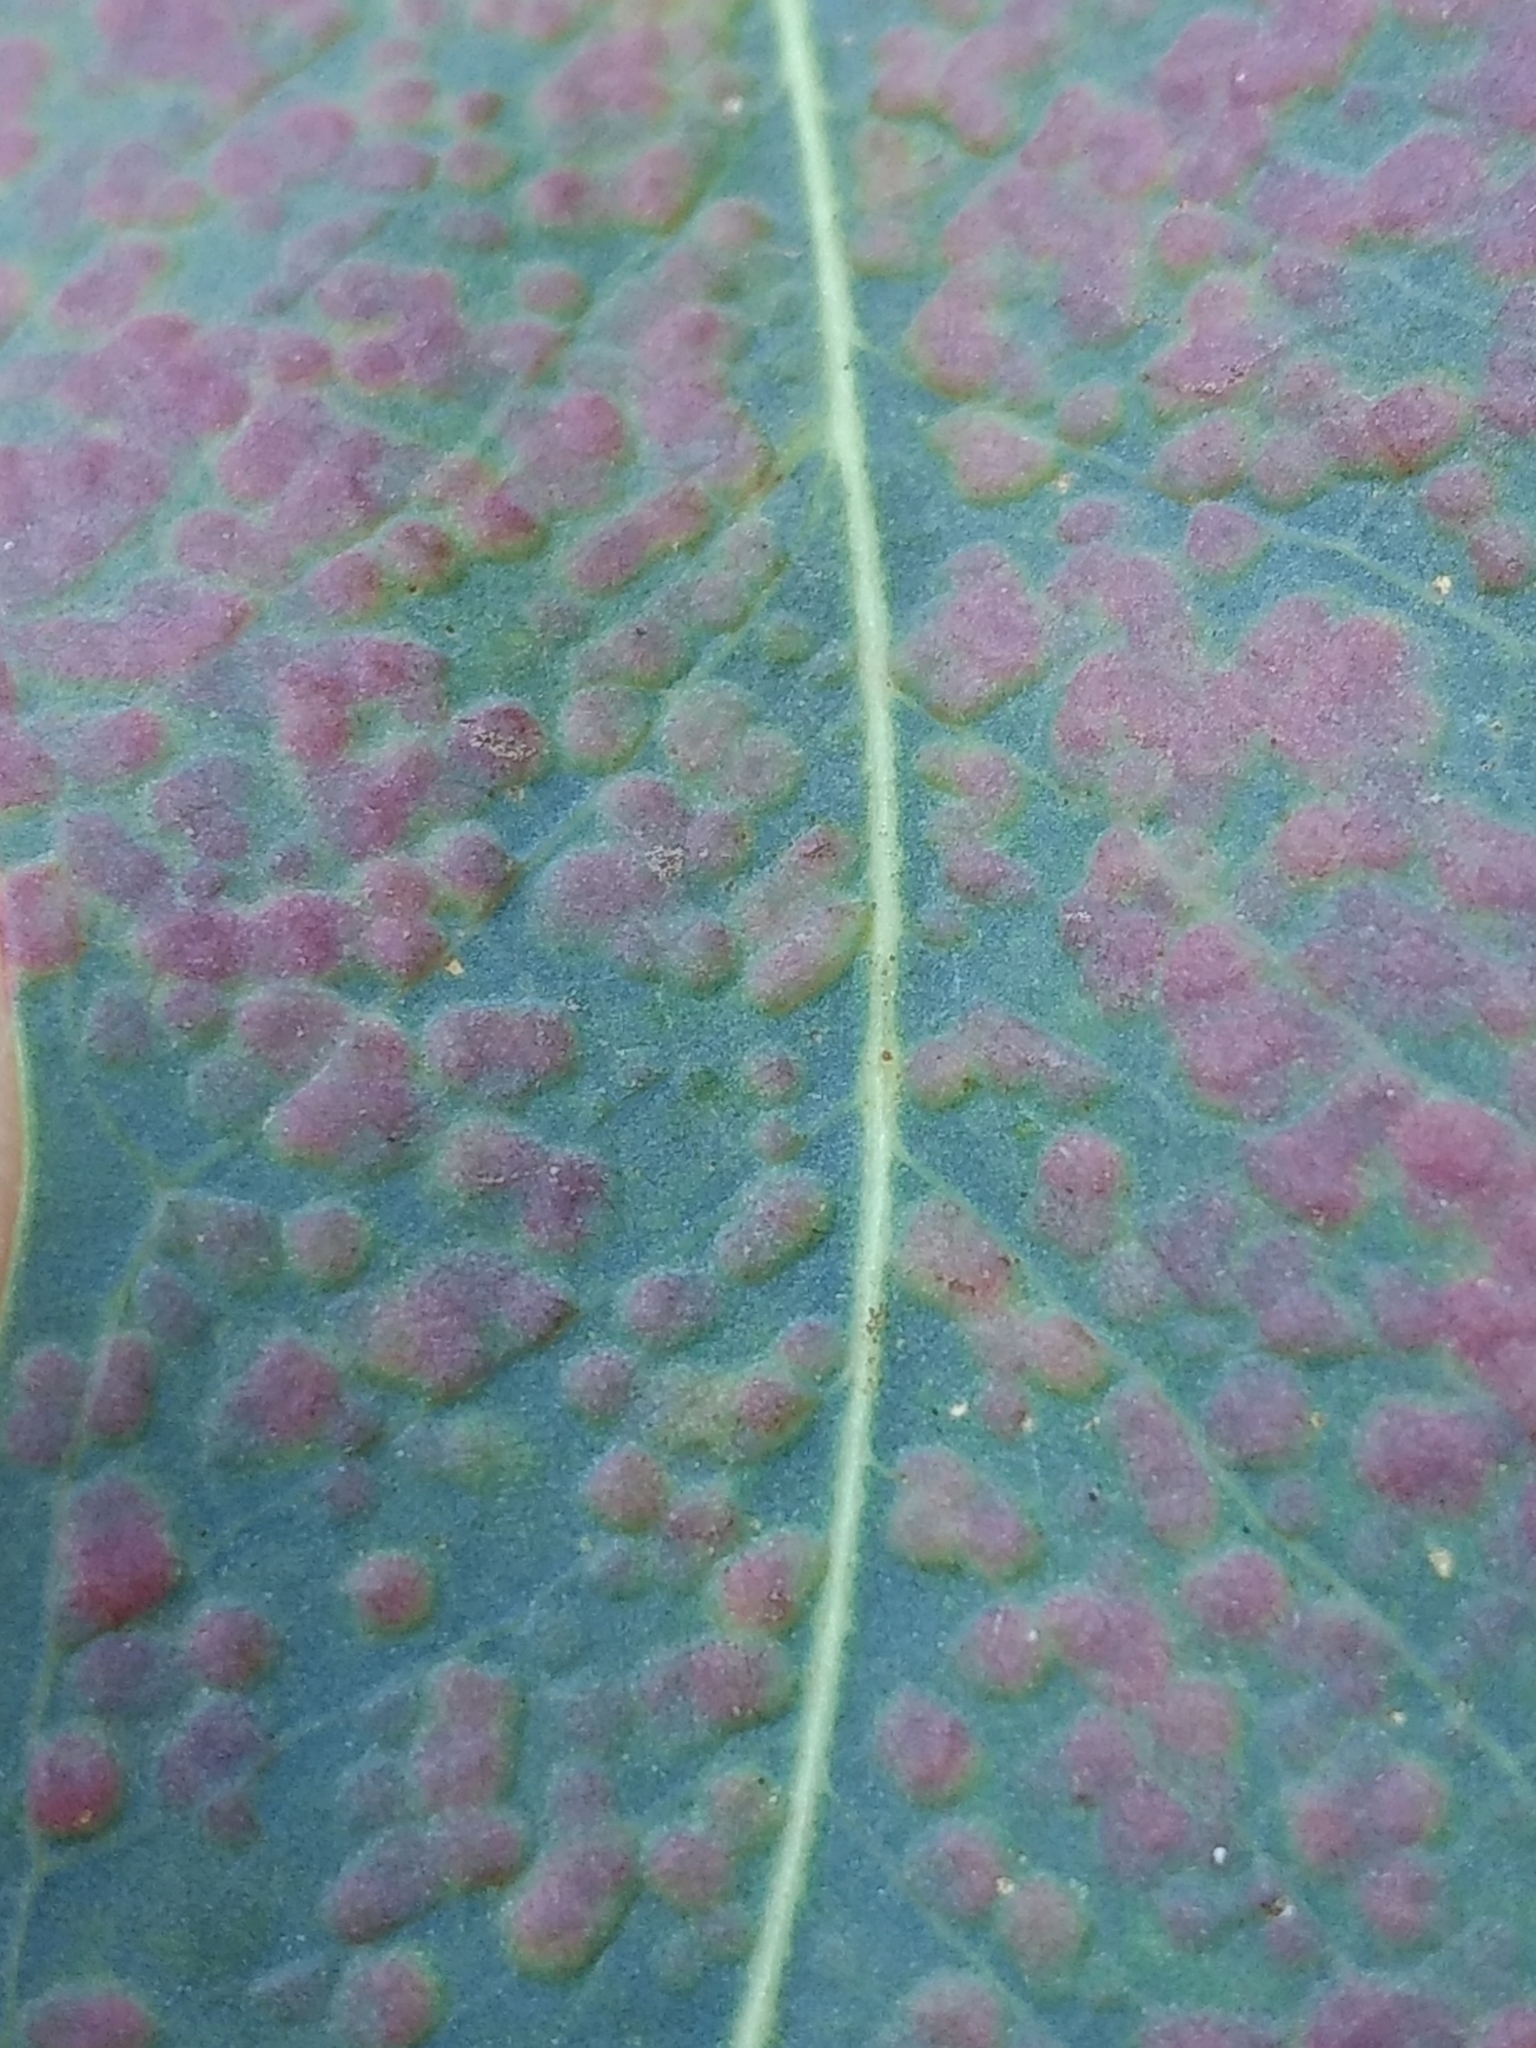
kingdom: Animalia
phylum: Arthropoda
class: Insecta
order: Hymenoptera
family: Eulophidae
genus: Ophelimus
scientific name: Ophelimus maskelli
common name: Gall wasp
